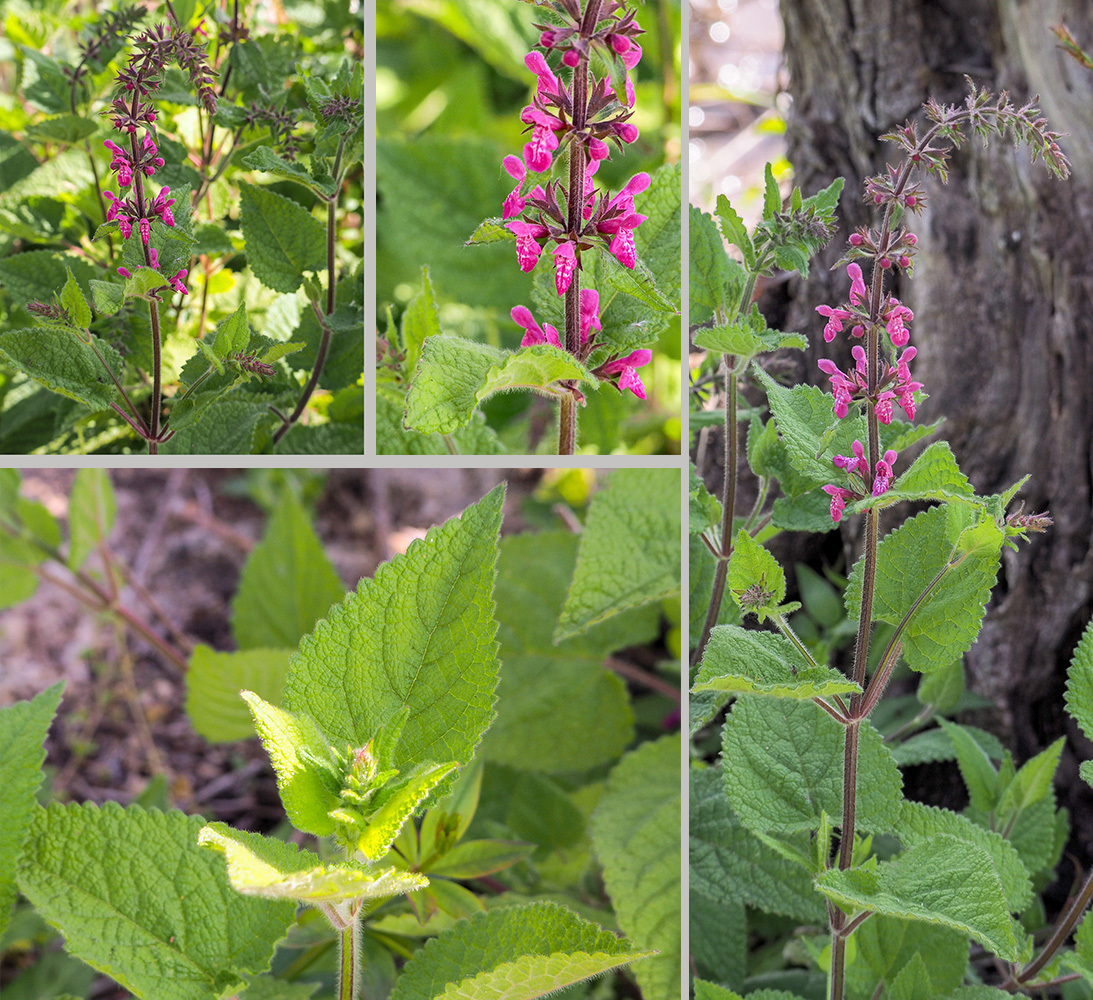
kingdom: Plantae
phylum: Tracheophyta
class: Magnoliopsida
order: Lamiales
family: Lamiaceae
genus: Stachys
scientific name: Stachys sylvatica
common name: Hedge woundwort
